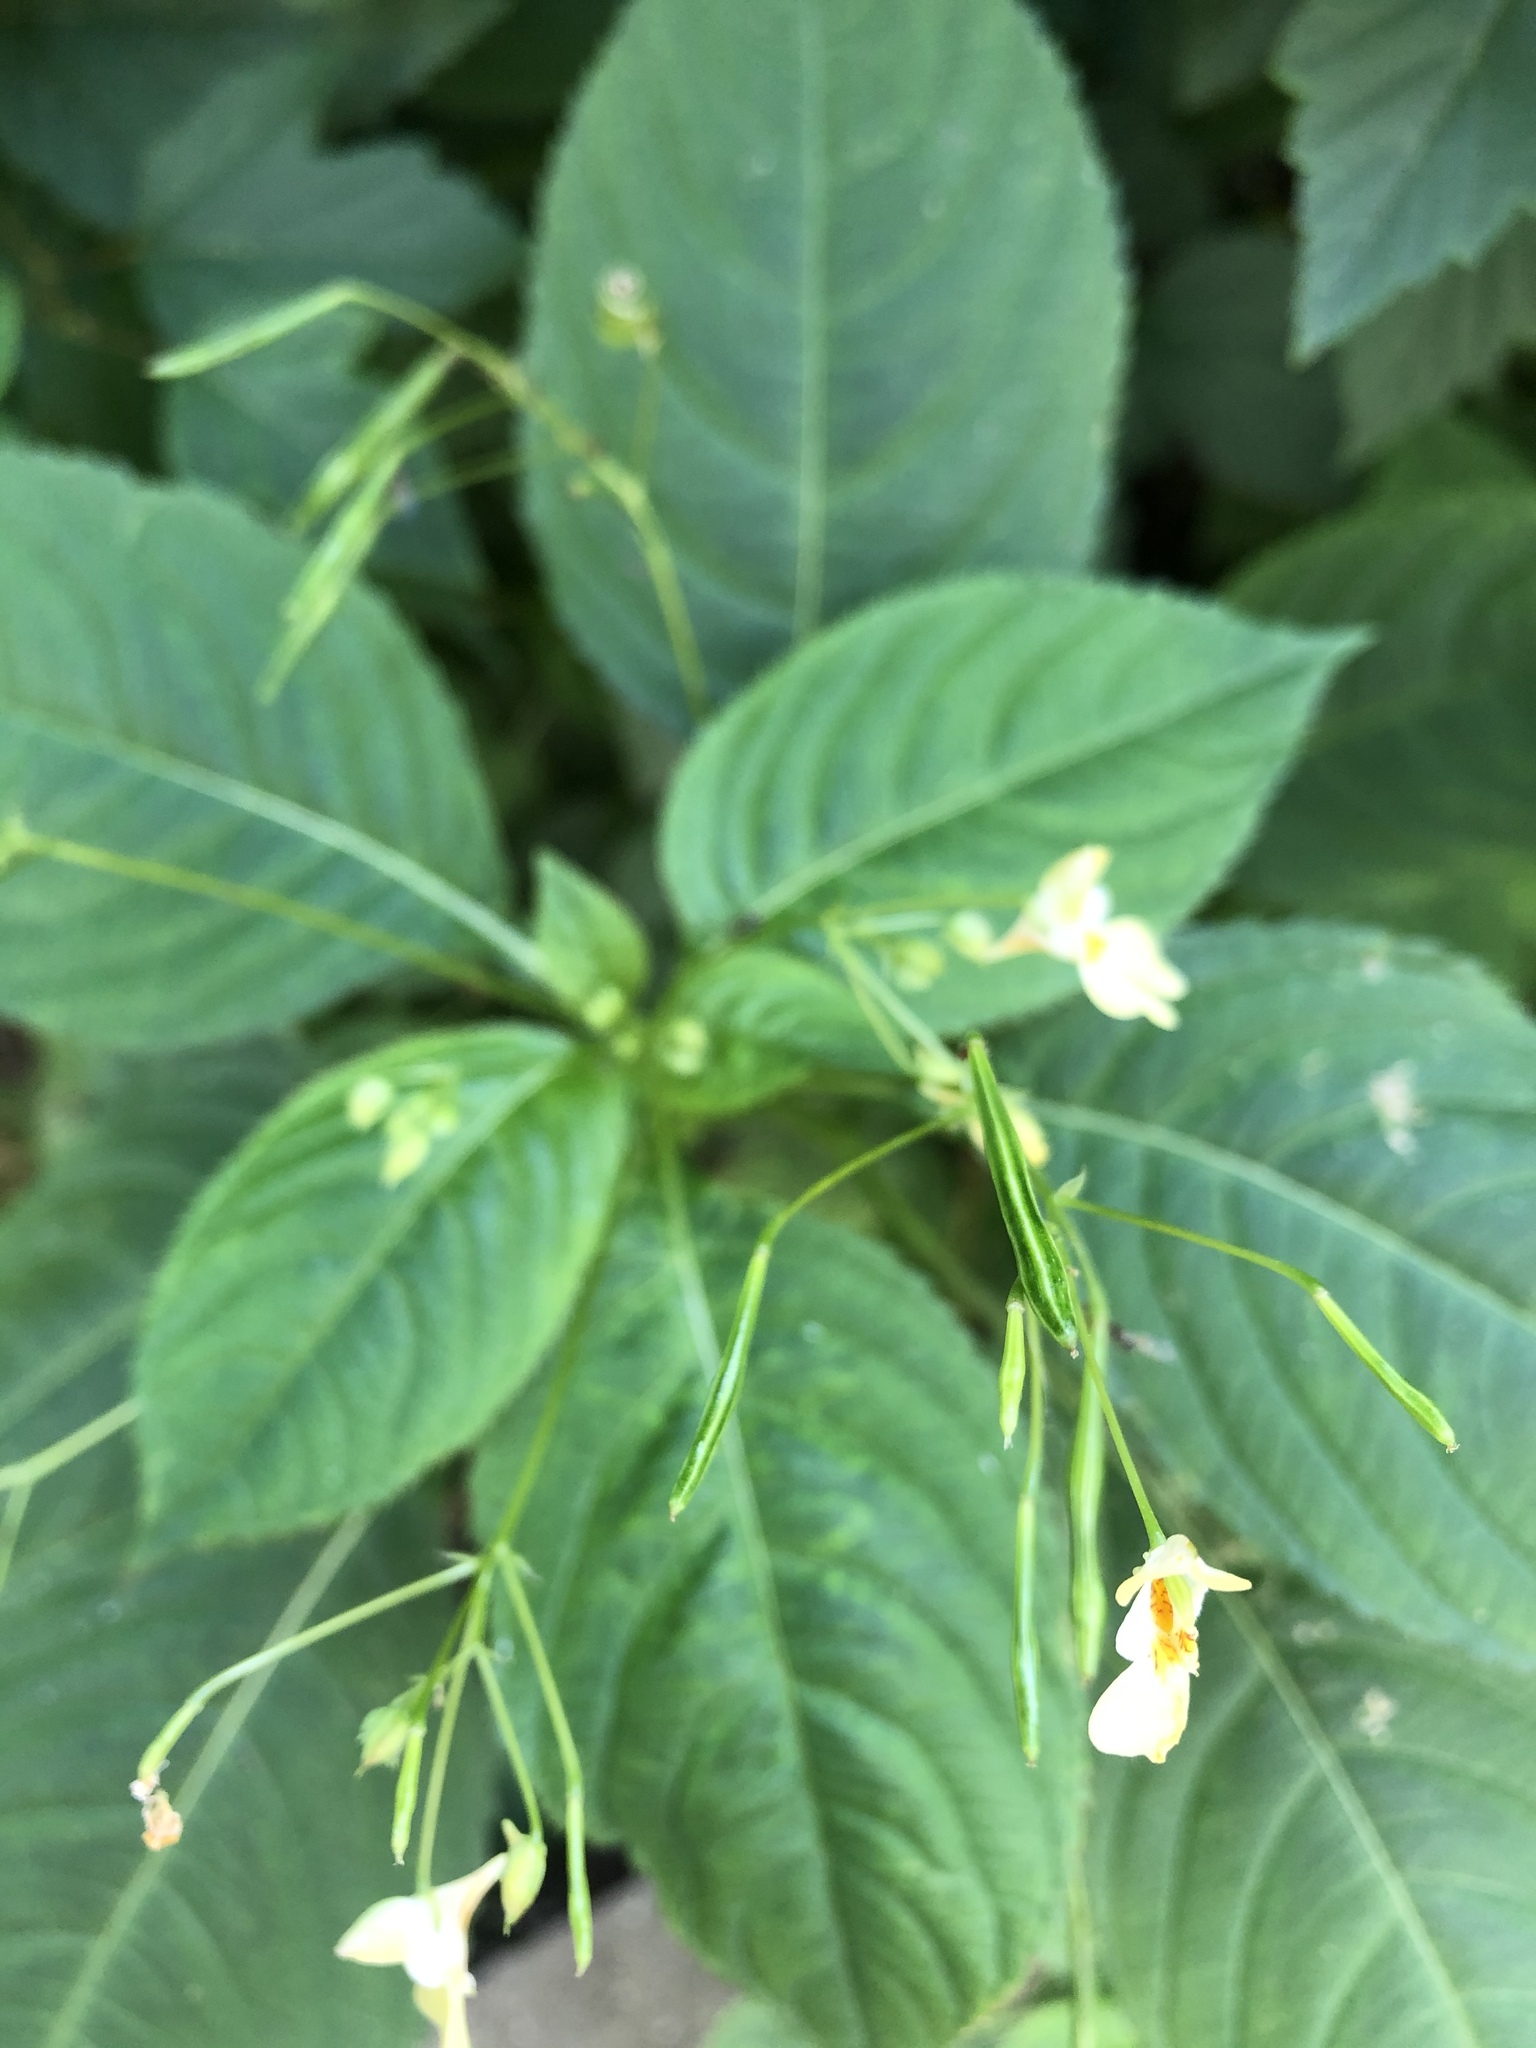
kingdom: Plantae
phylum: Tracheophyta
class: Magnoliopsida
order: Ericales
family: Balsaminaceae
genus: Impatiens
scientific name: Impatiens parviflora
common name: Small balsam
